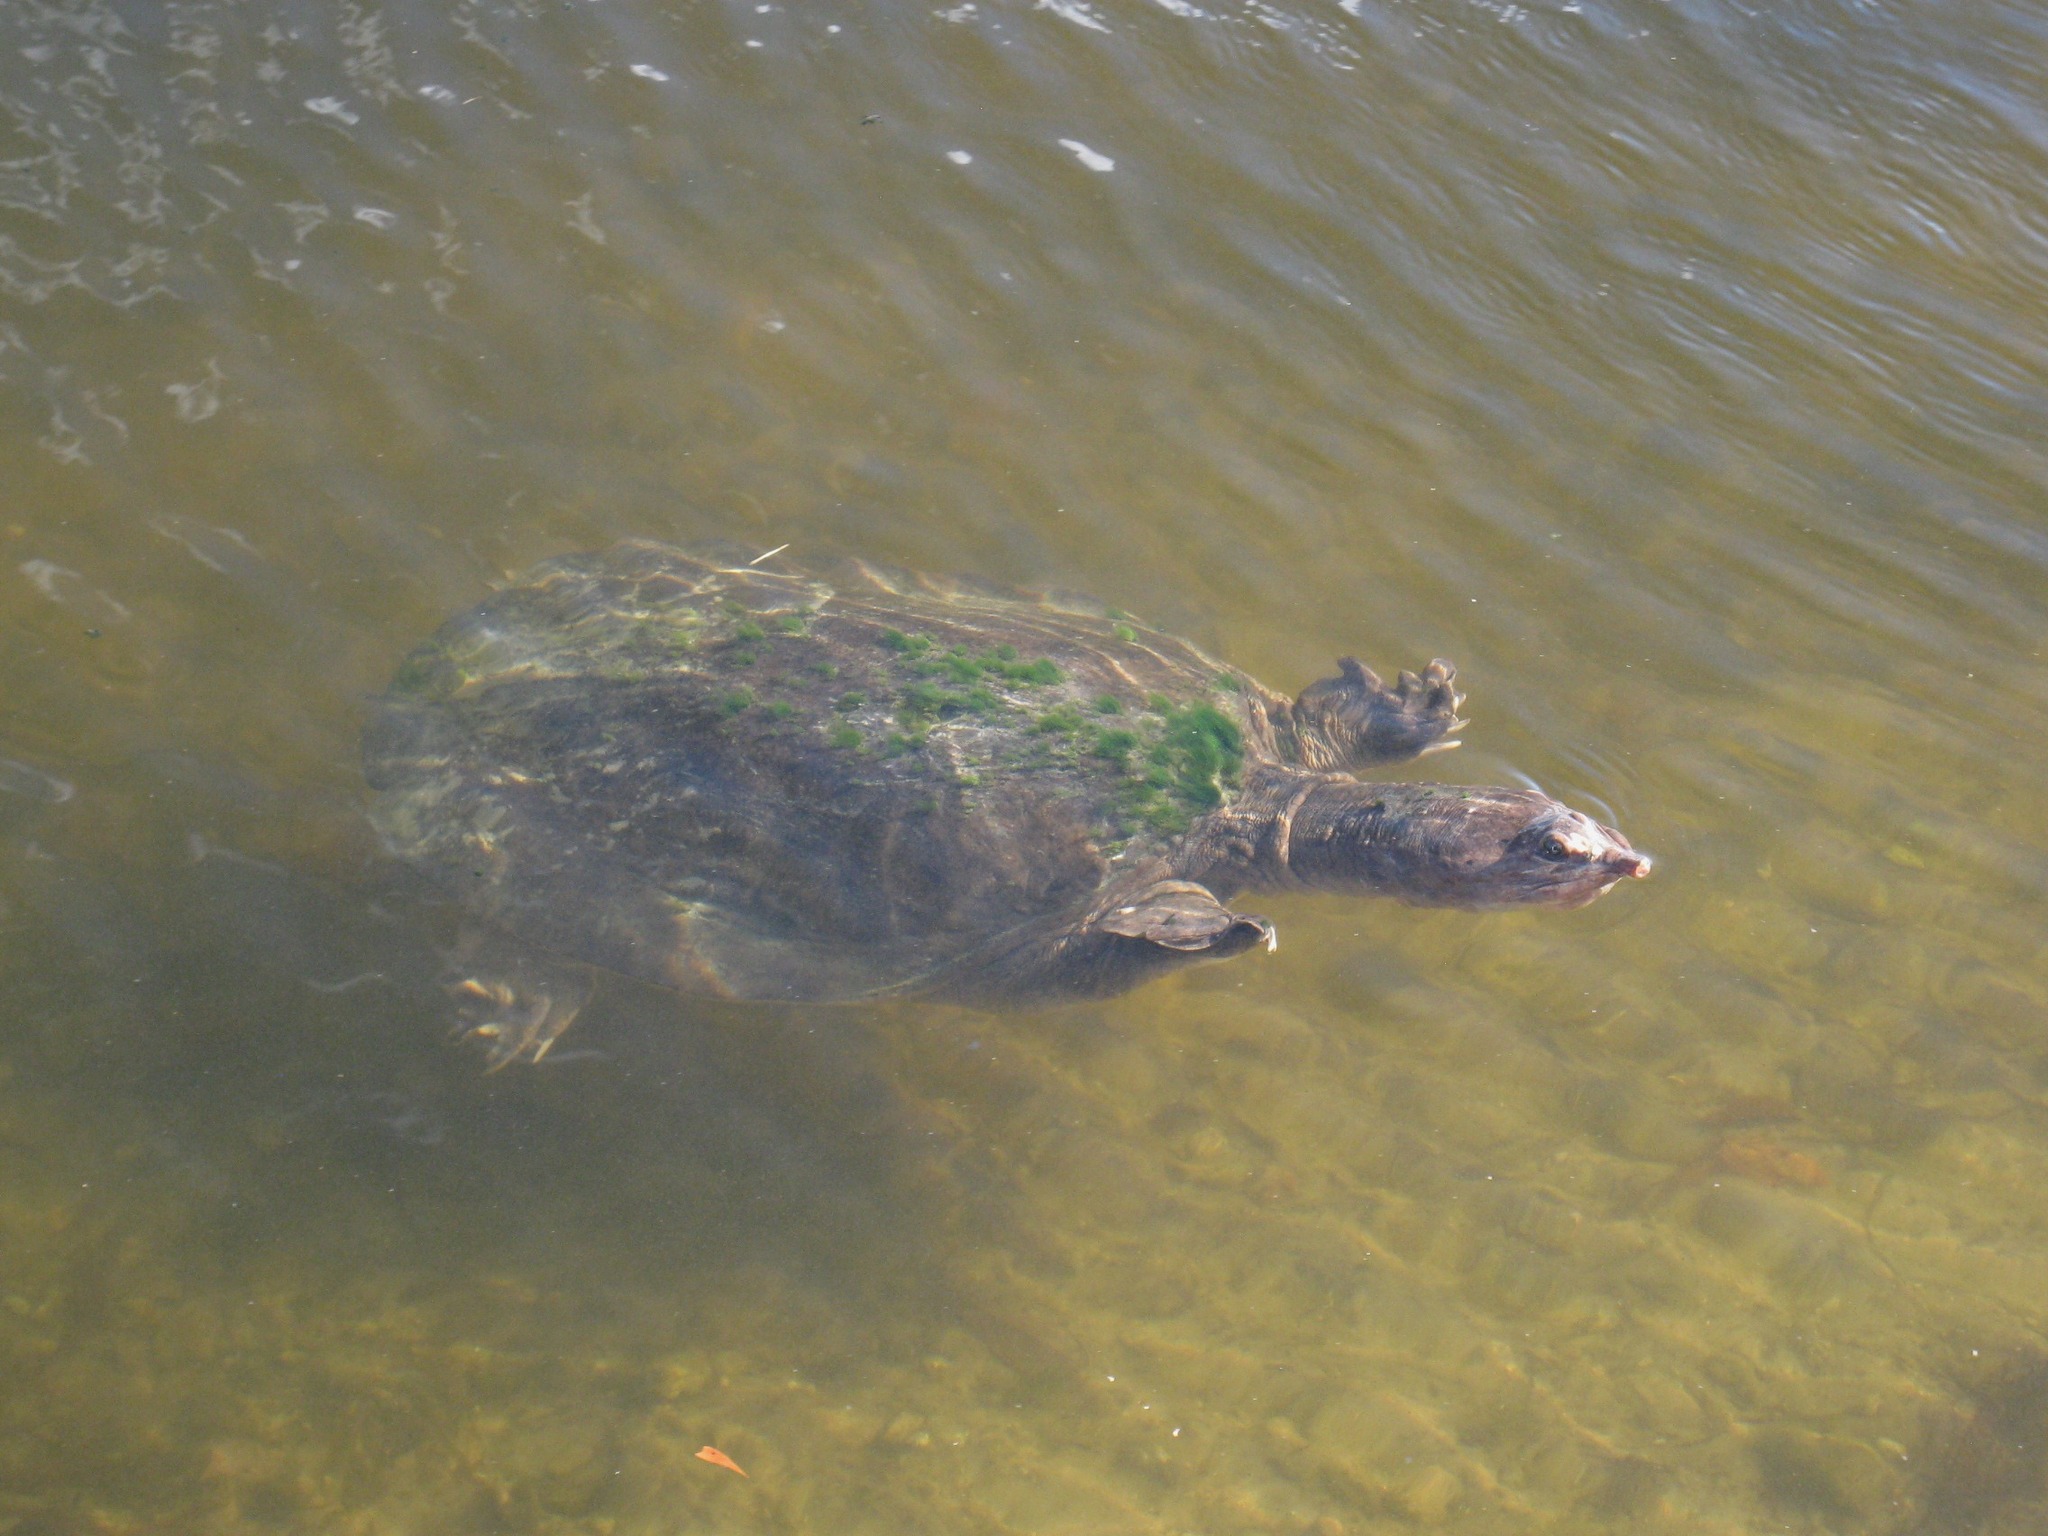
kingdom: Animalia
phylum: Chordata
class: Testudines
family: Trionychidae
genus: Apalone
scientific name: Apalone ferox
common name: Florida softshell turtle
